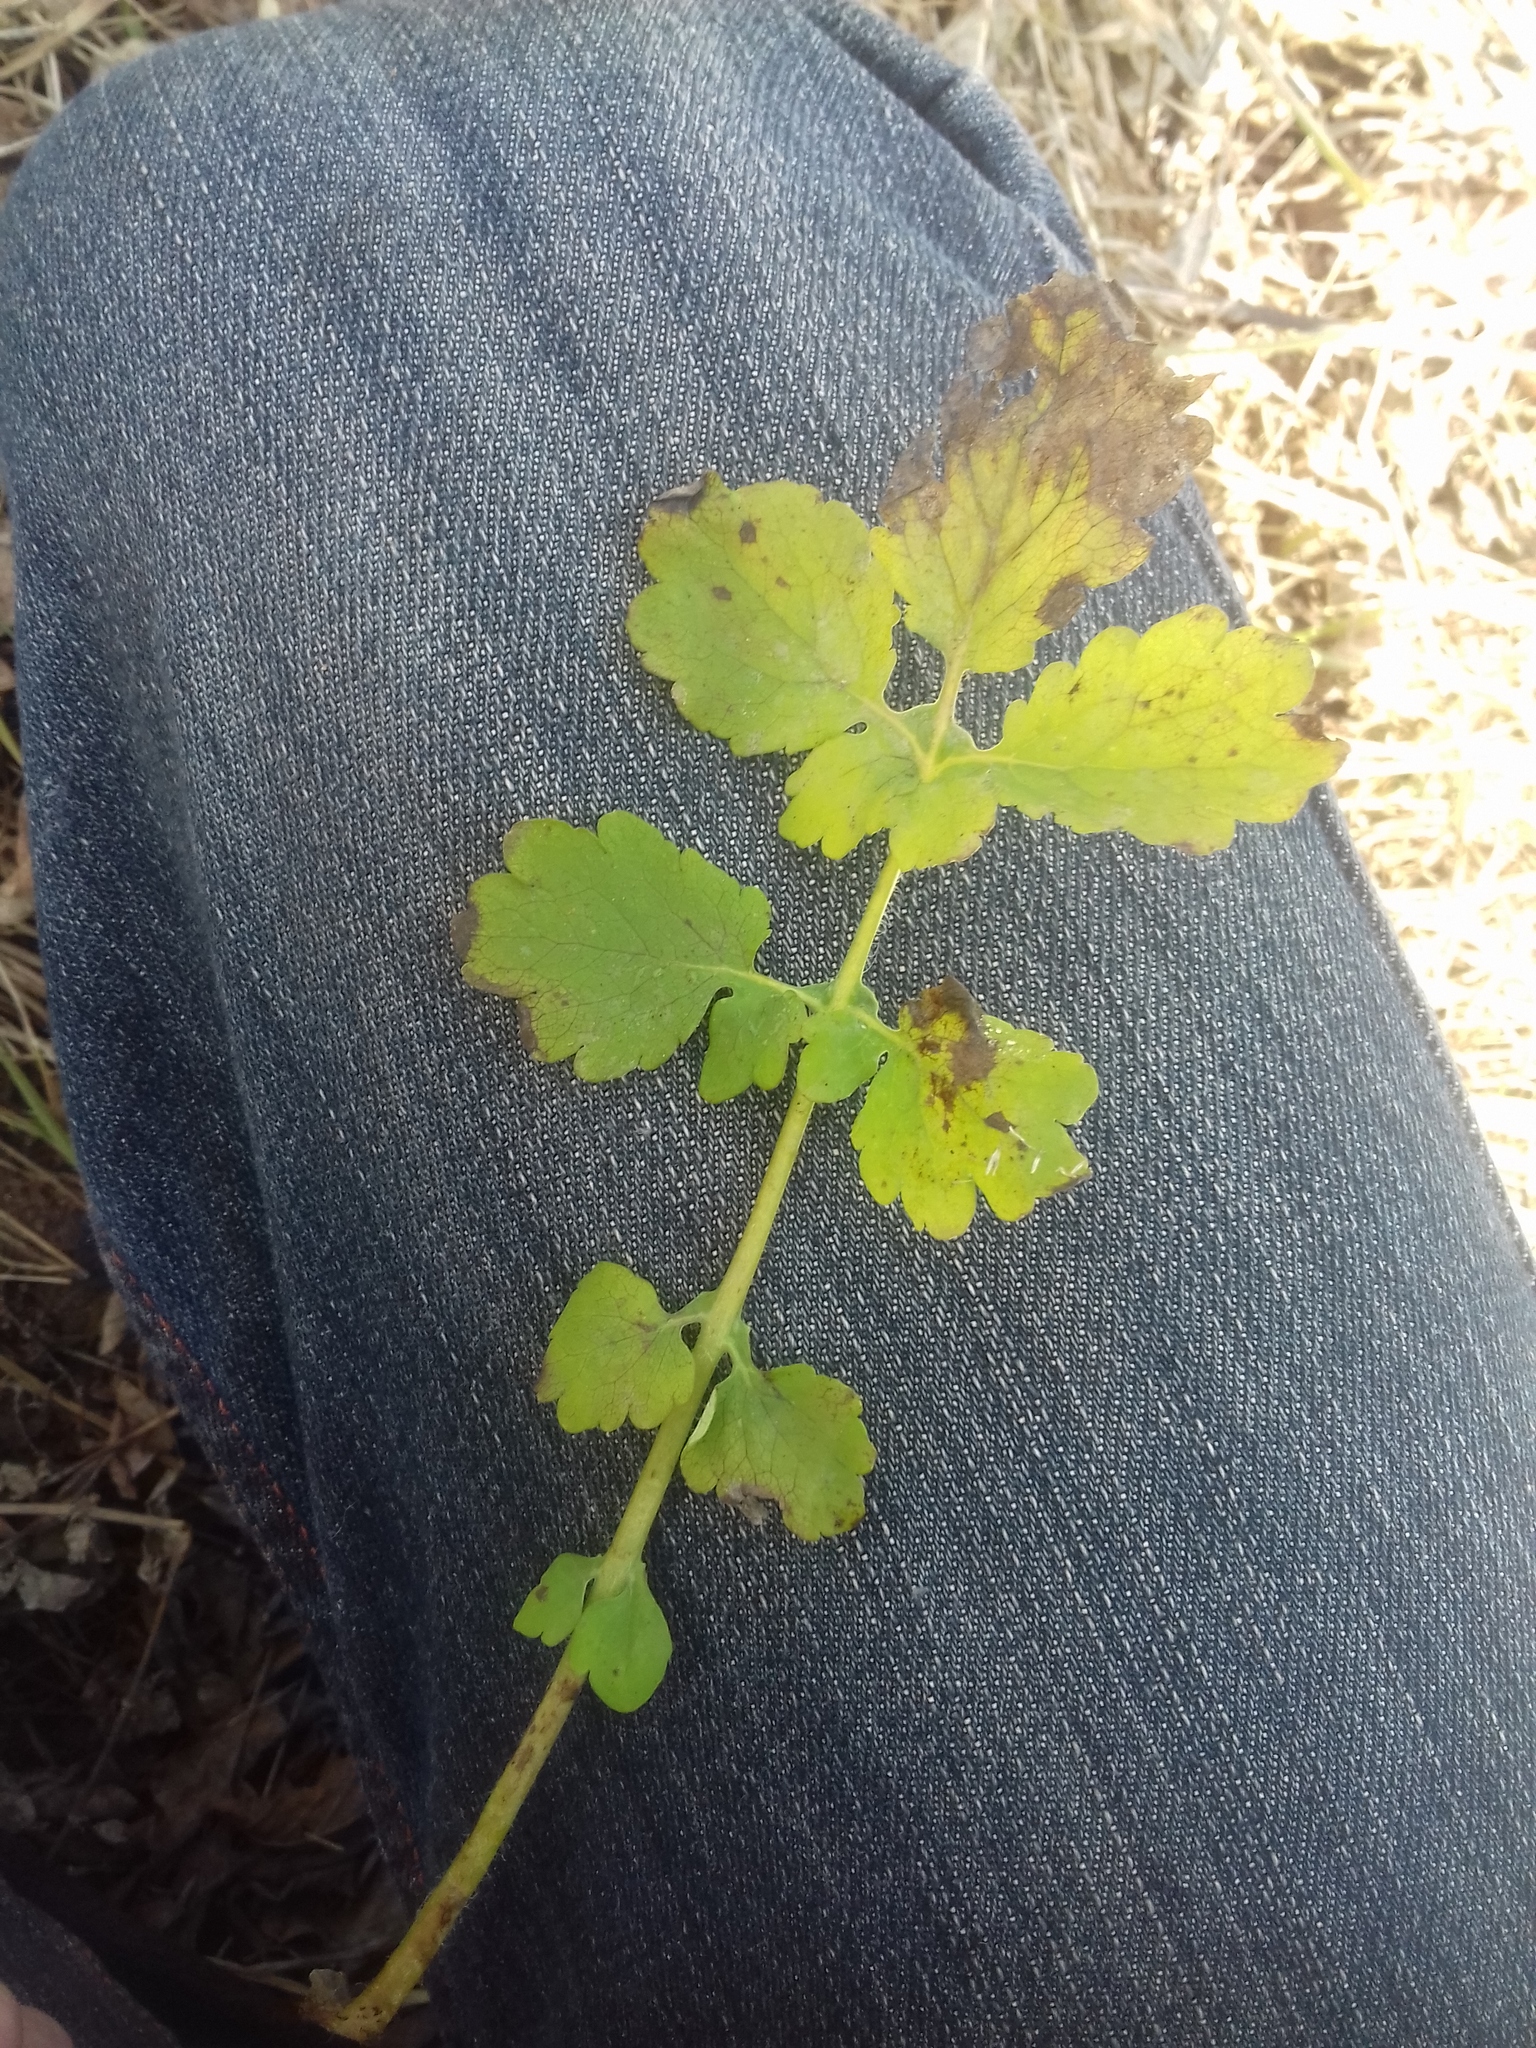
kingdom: Plantae
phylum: Tracheophyta
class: Magnoliopsida
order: Ranunculales
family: Papaveraceae
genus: Chelidonium
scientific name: Chelidonium majus
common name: Greater celandine
